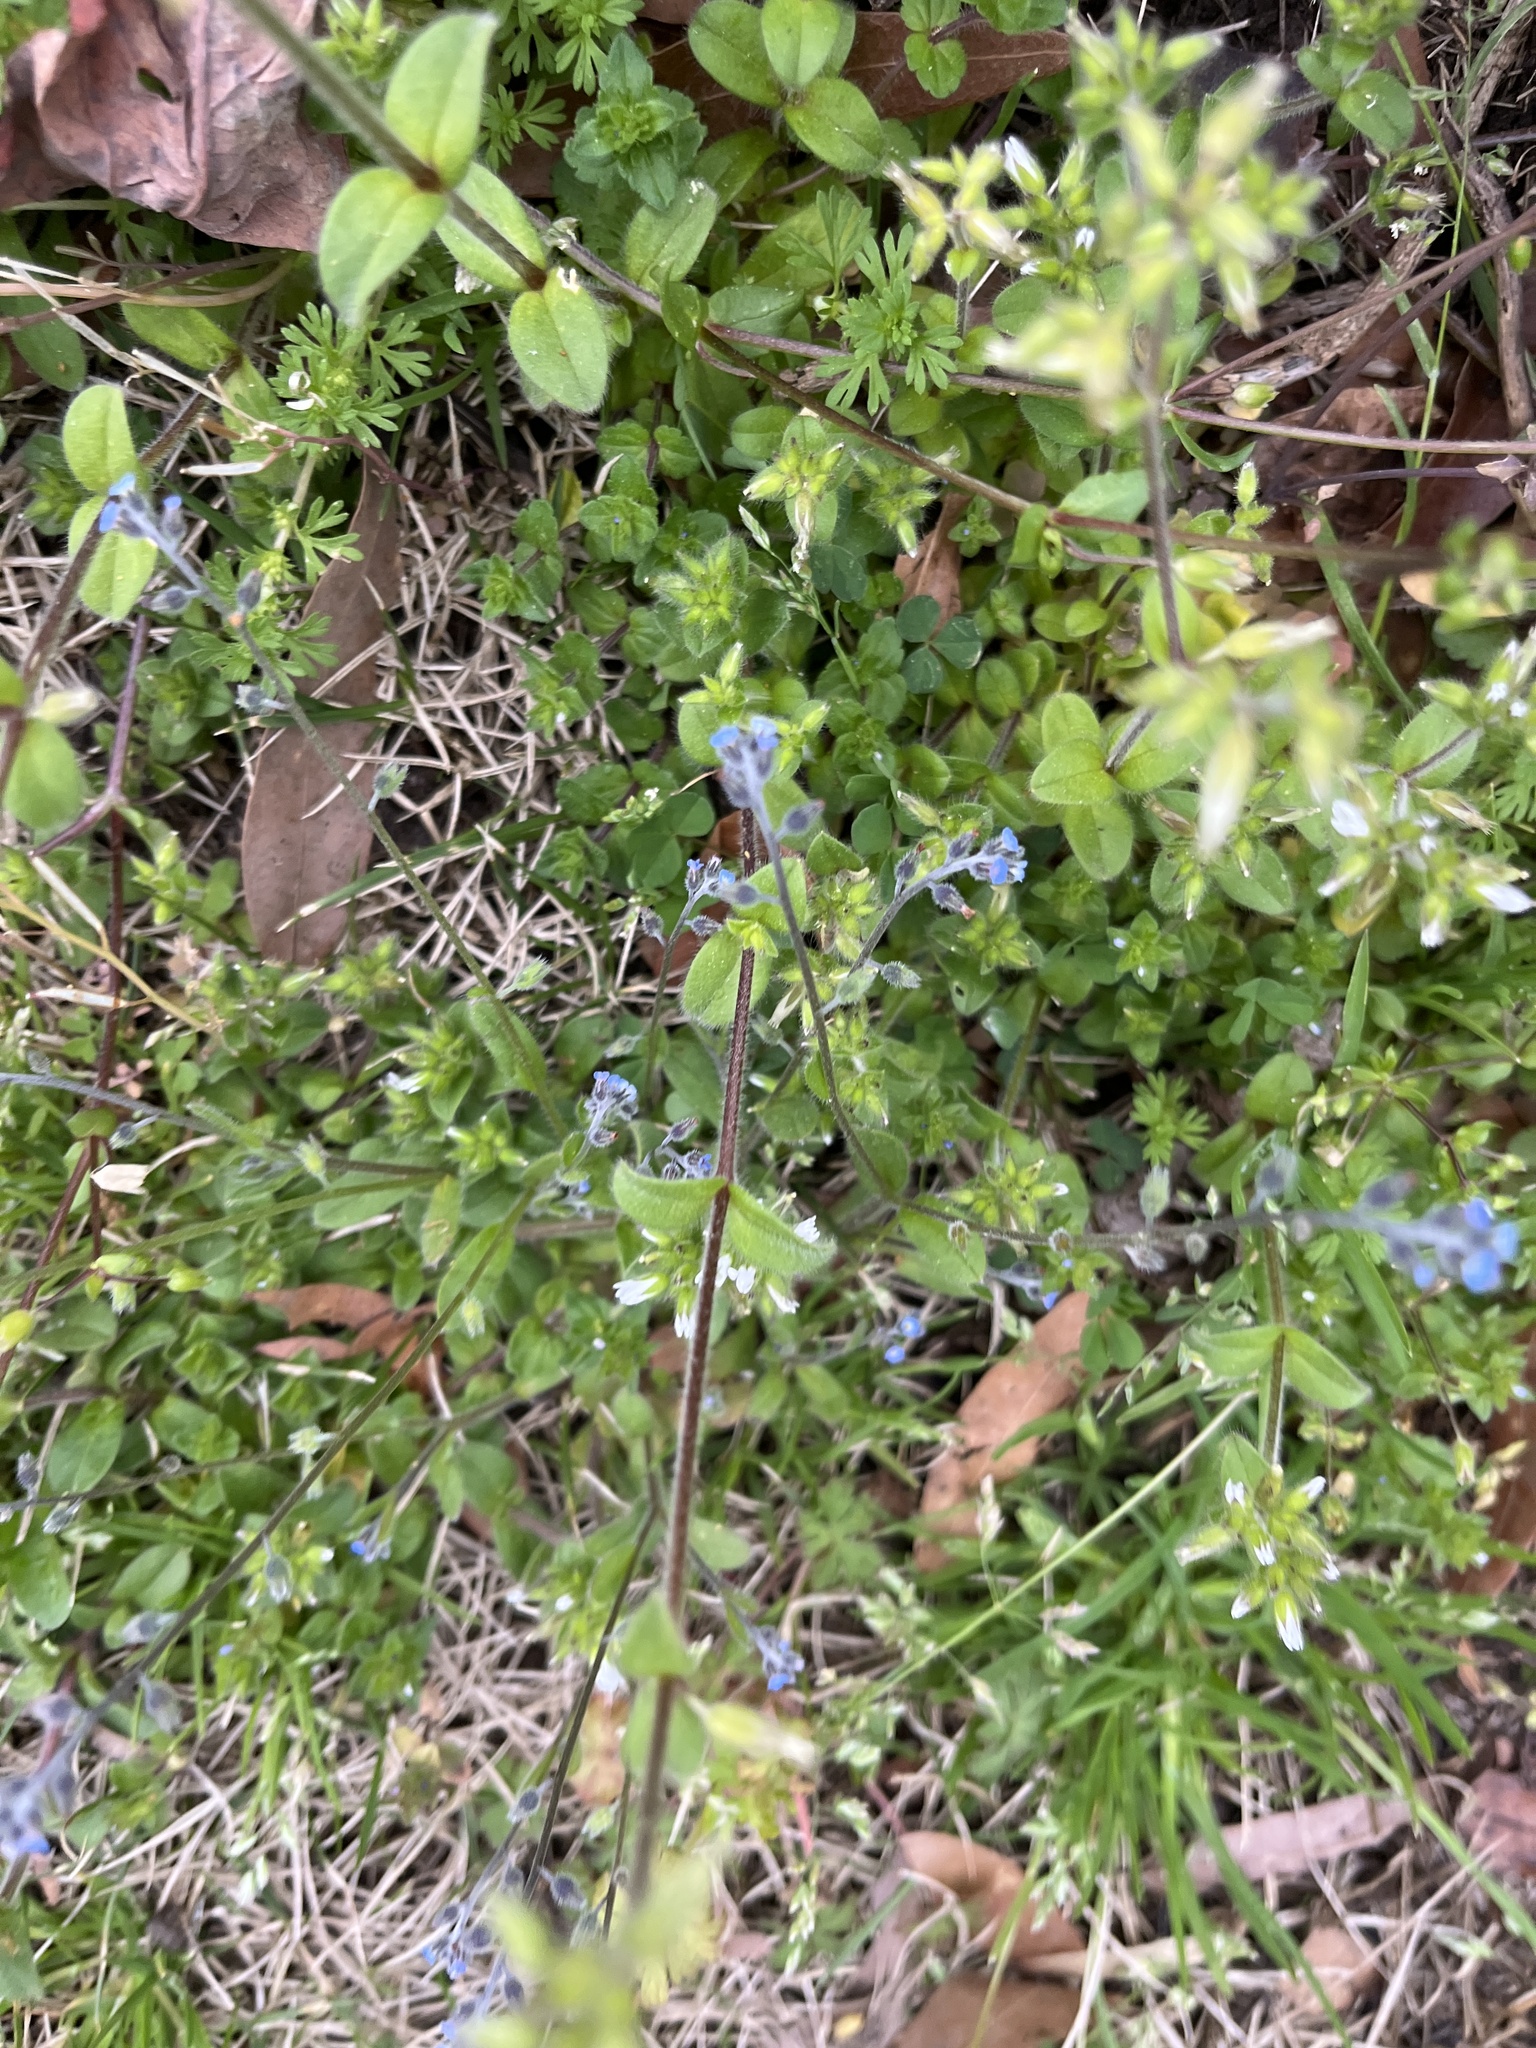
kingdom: Plantae
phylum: Tracheophyta
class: Magnoliopsida
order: Boraginales
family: Boraginaceae
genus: Myosotis
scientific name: Myosotis ramosissima
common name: Early forget-me-not
